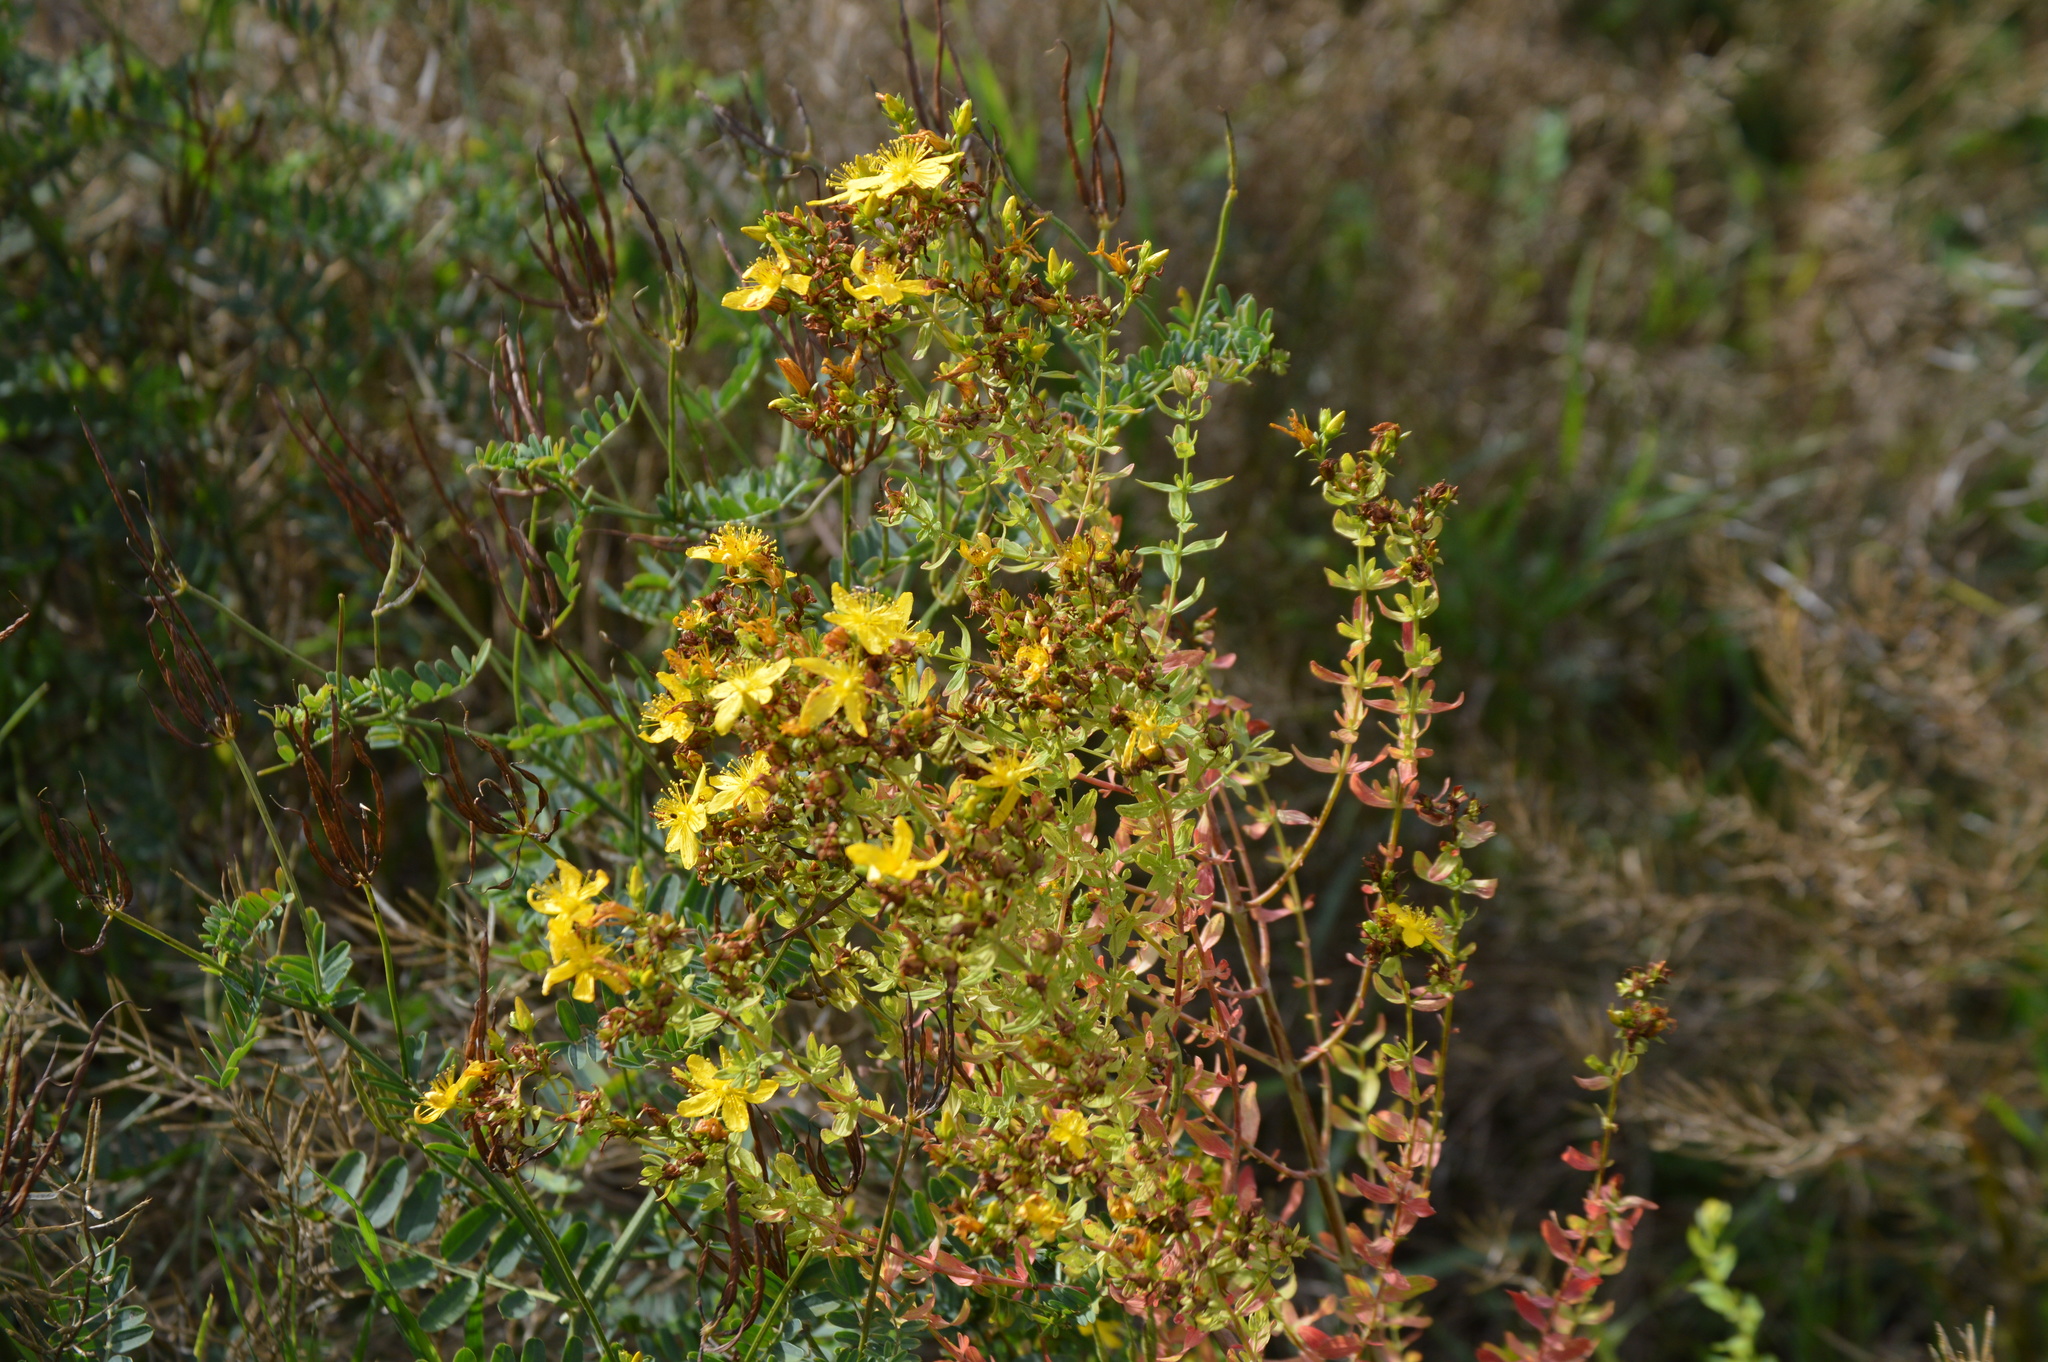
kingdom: Plantae
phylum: Tracheophyta
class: Magnoliopsida
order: Malpighiales
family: Hypericaceae
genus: Hypericum
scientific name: Hypericum perforatum
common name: Common st. johnswort
